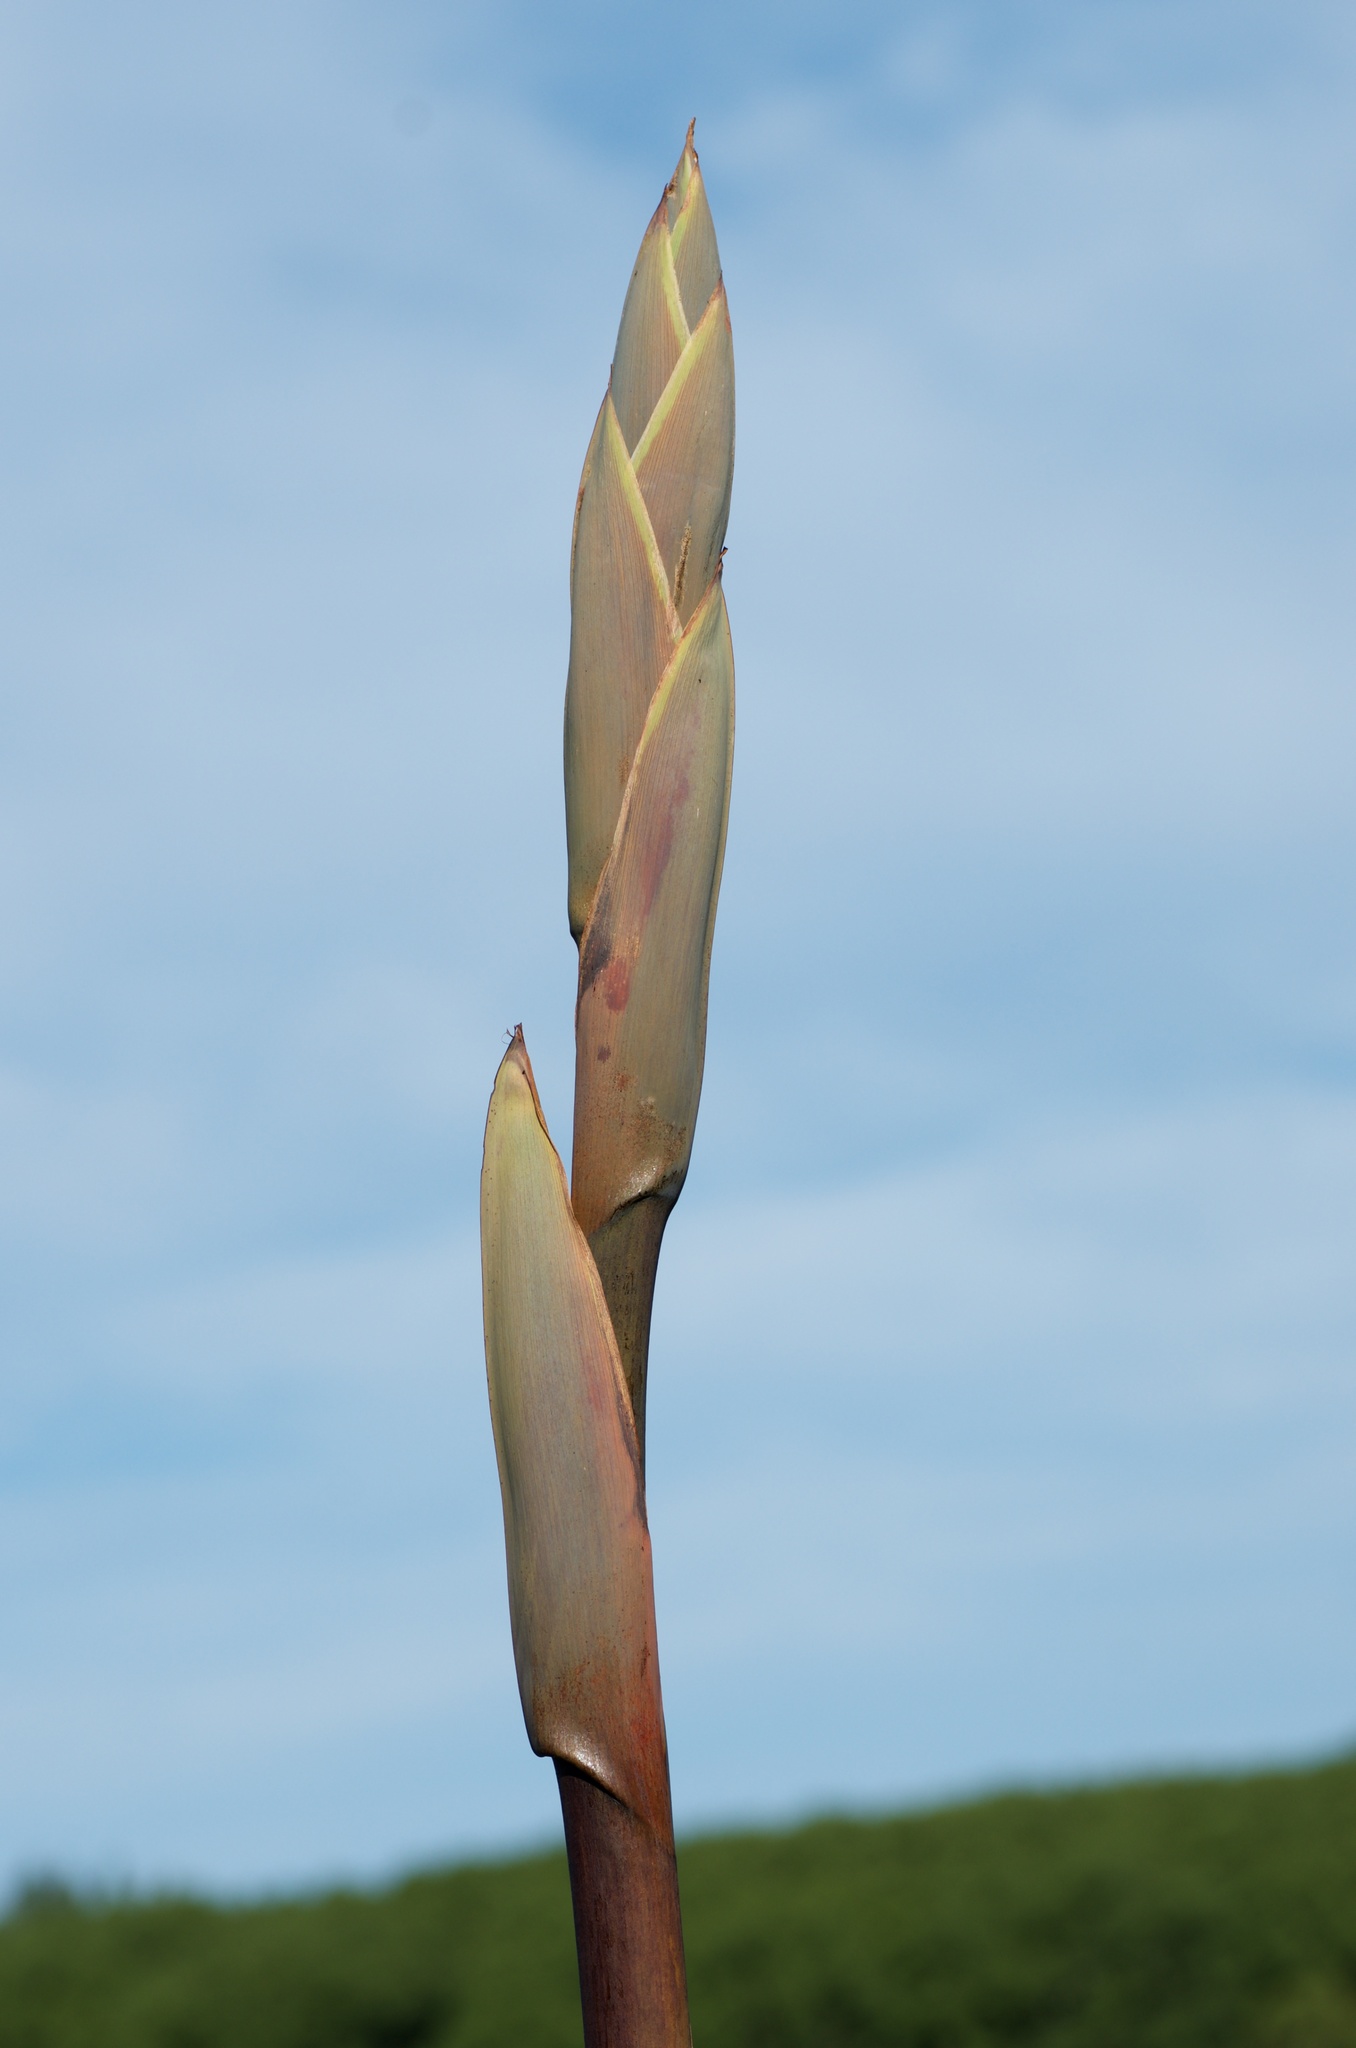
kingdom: Plantae
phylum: Tracheophyta
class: Liliopsida
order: Asparagales
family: Asphodelaceae
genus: Phormium
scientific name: Phormium tenax
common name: New zealand flax
